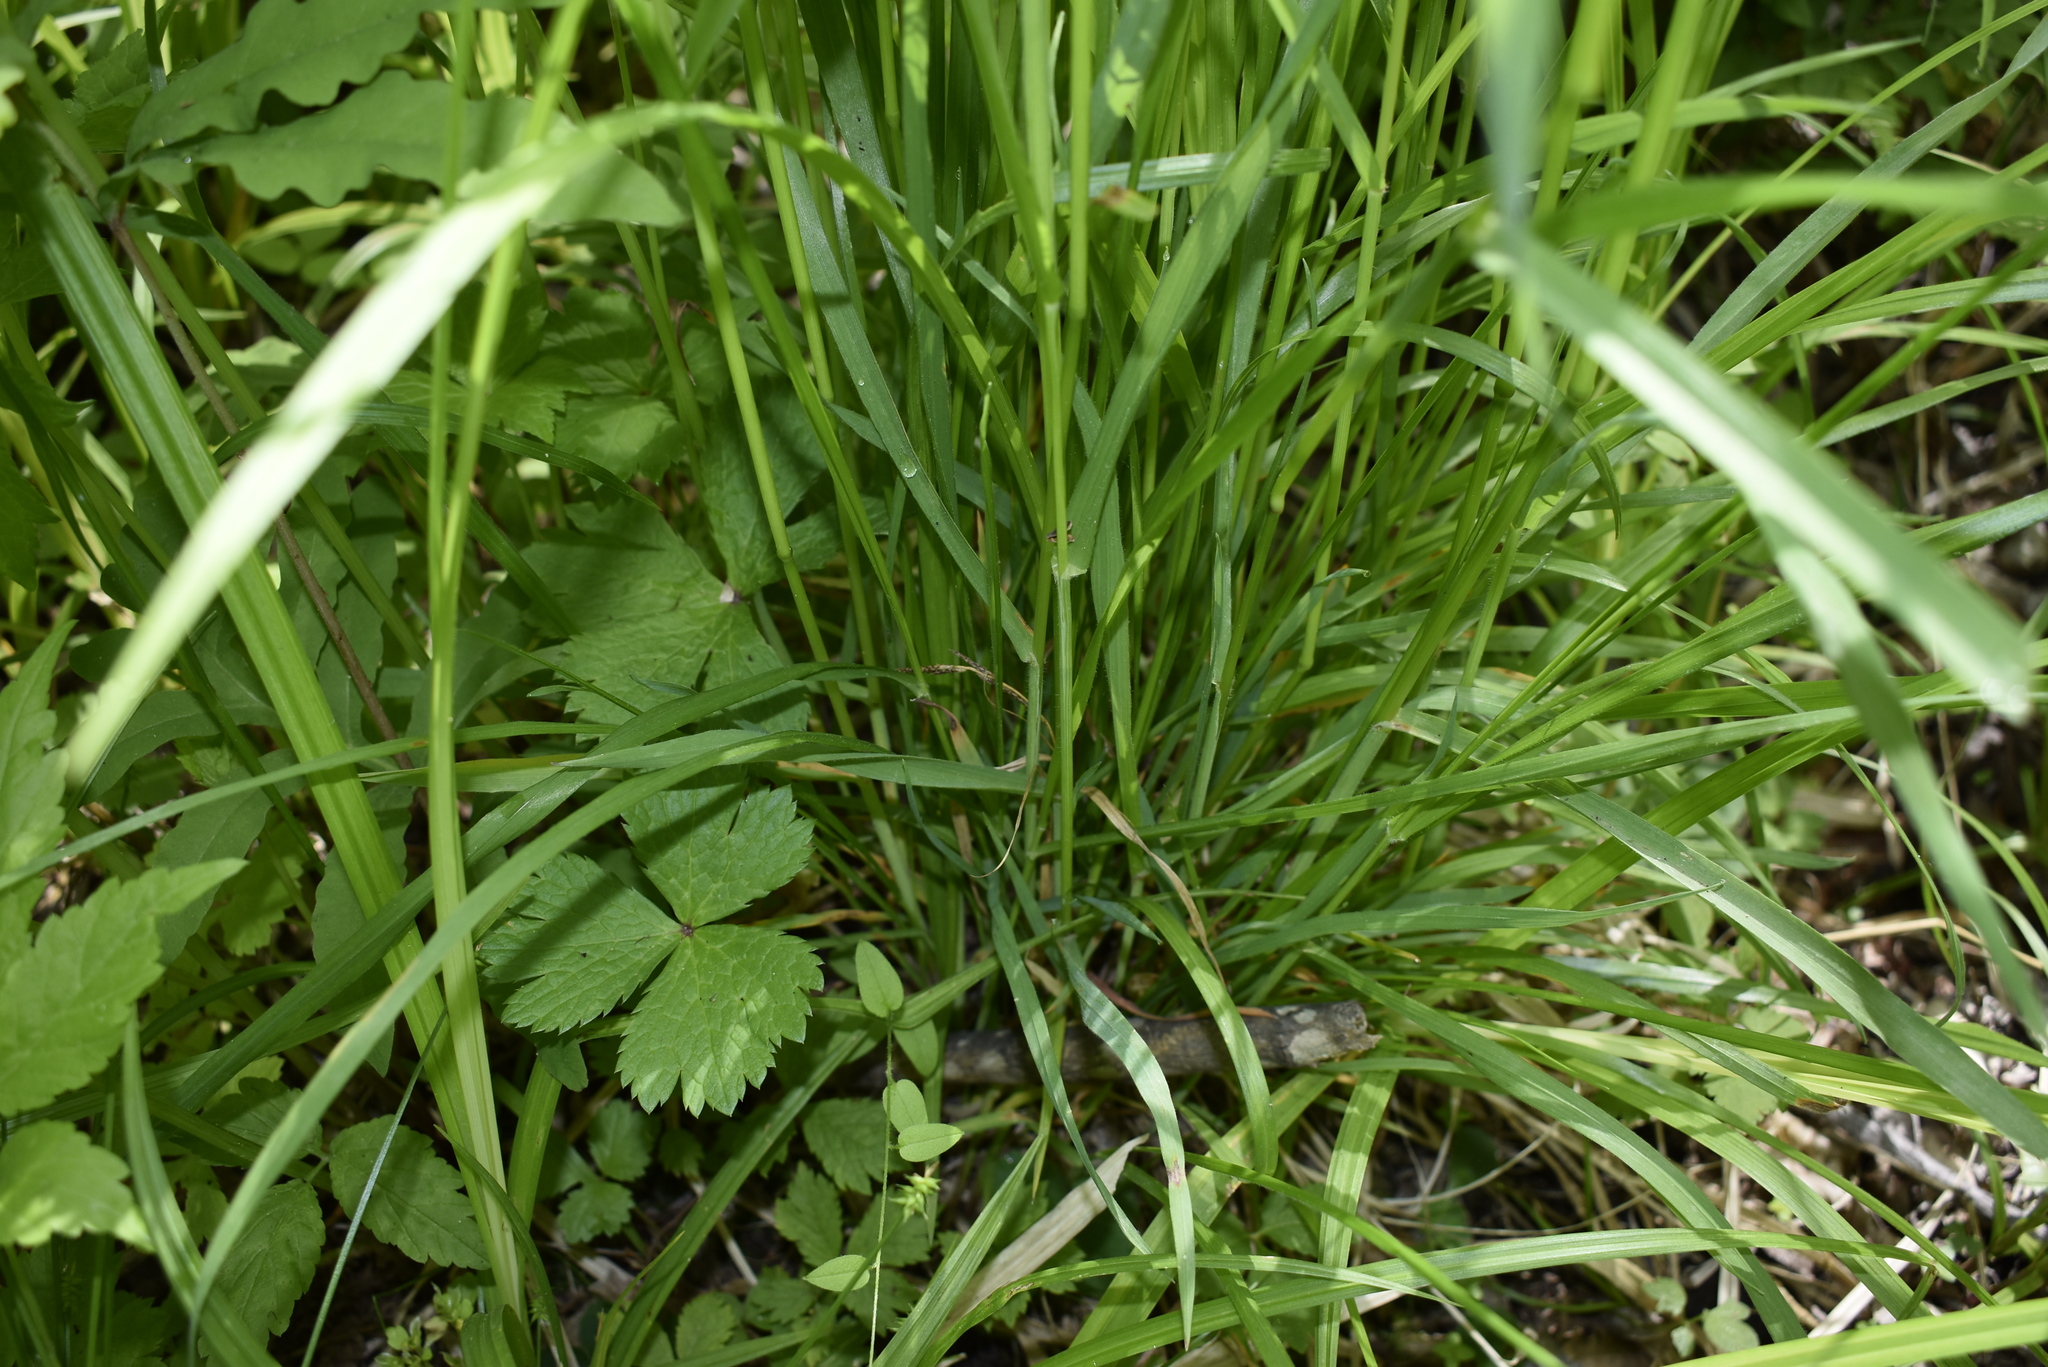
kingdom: Plantae
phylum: Tracheophyta
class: Liliopsida
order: Poales
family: Poaceae
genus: Sibirotrisetum
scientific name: Sibirotrisetum sibiricum
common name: Siberian false oat
